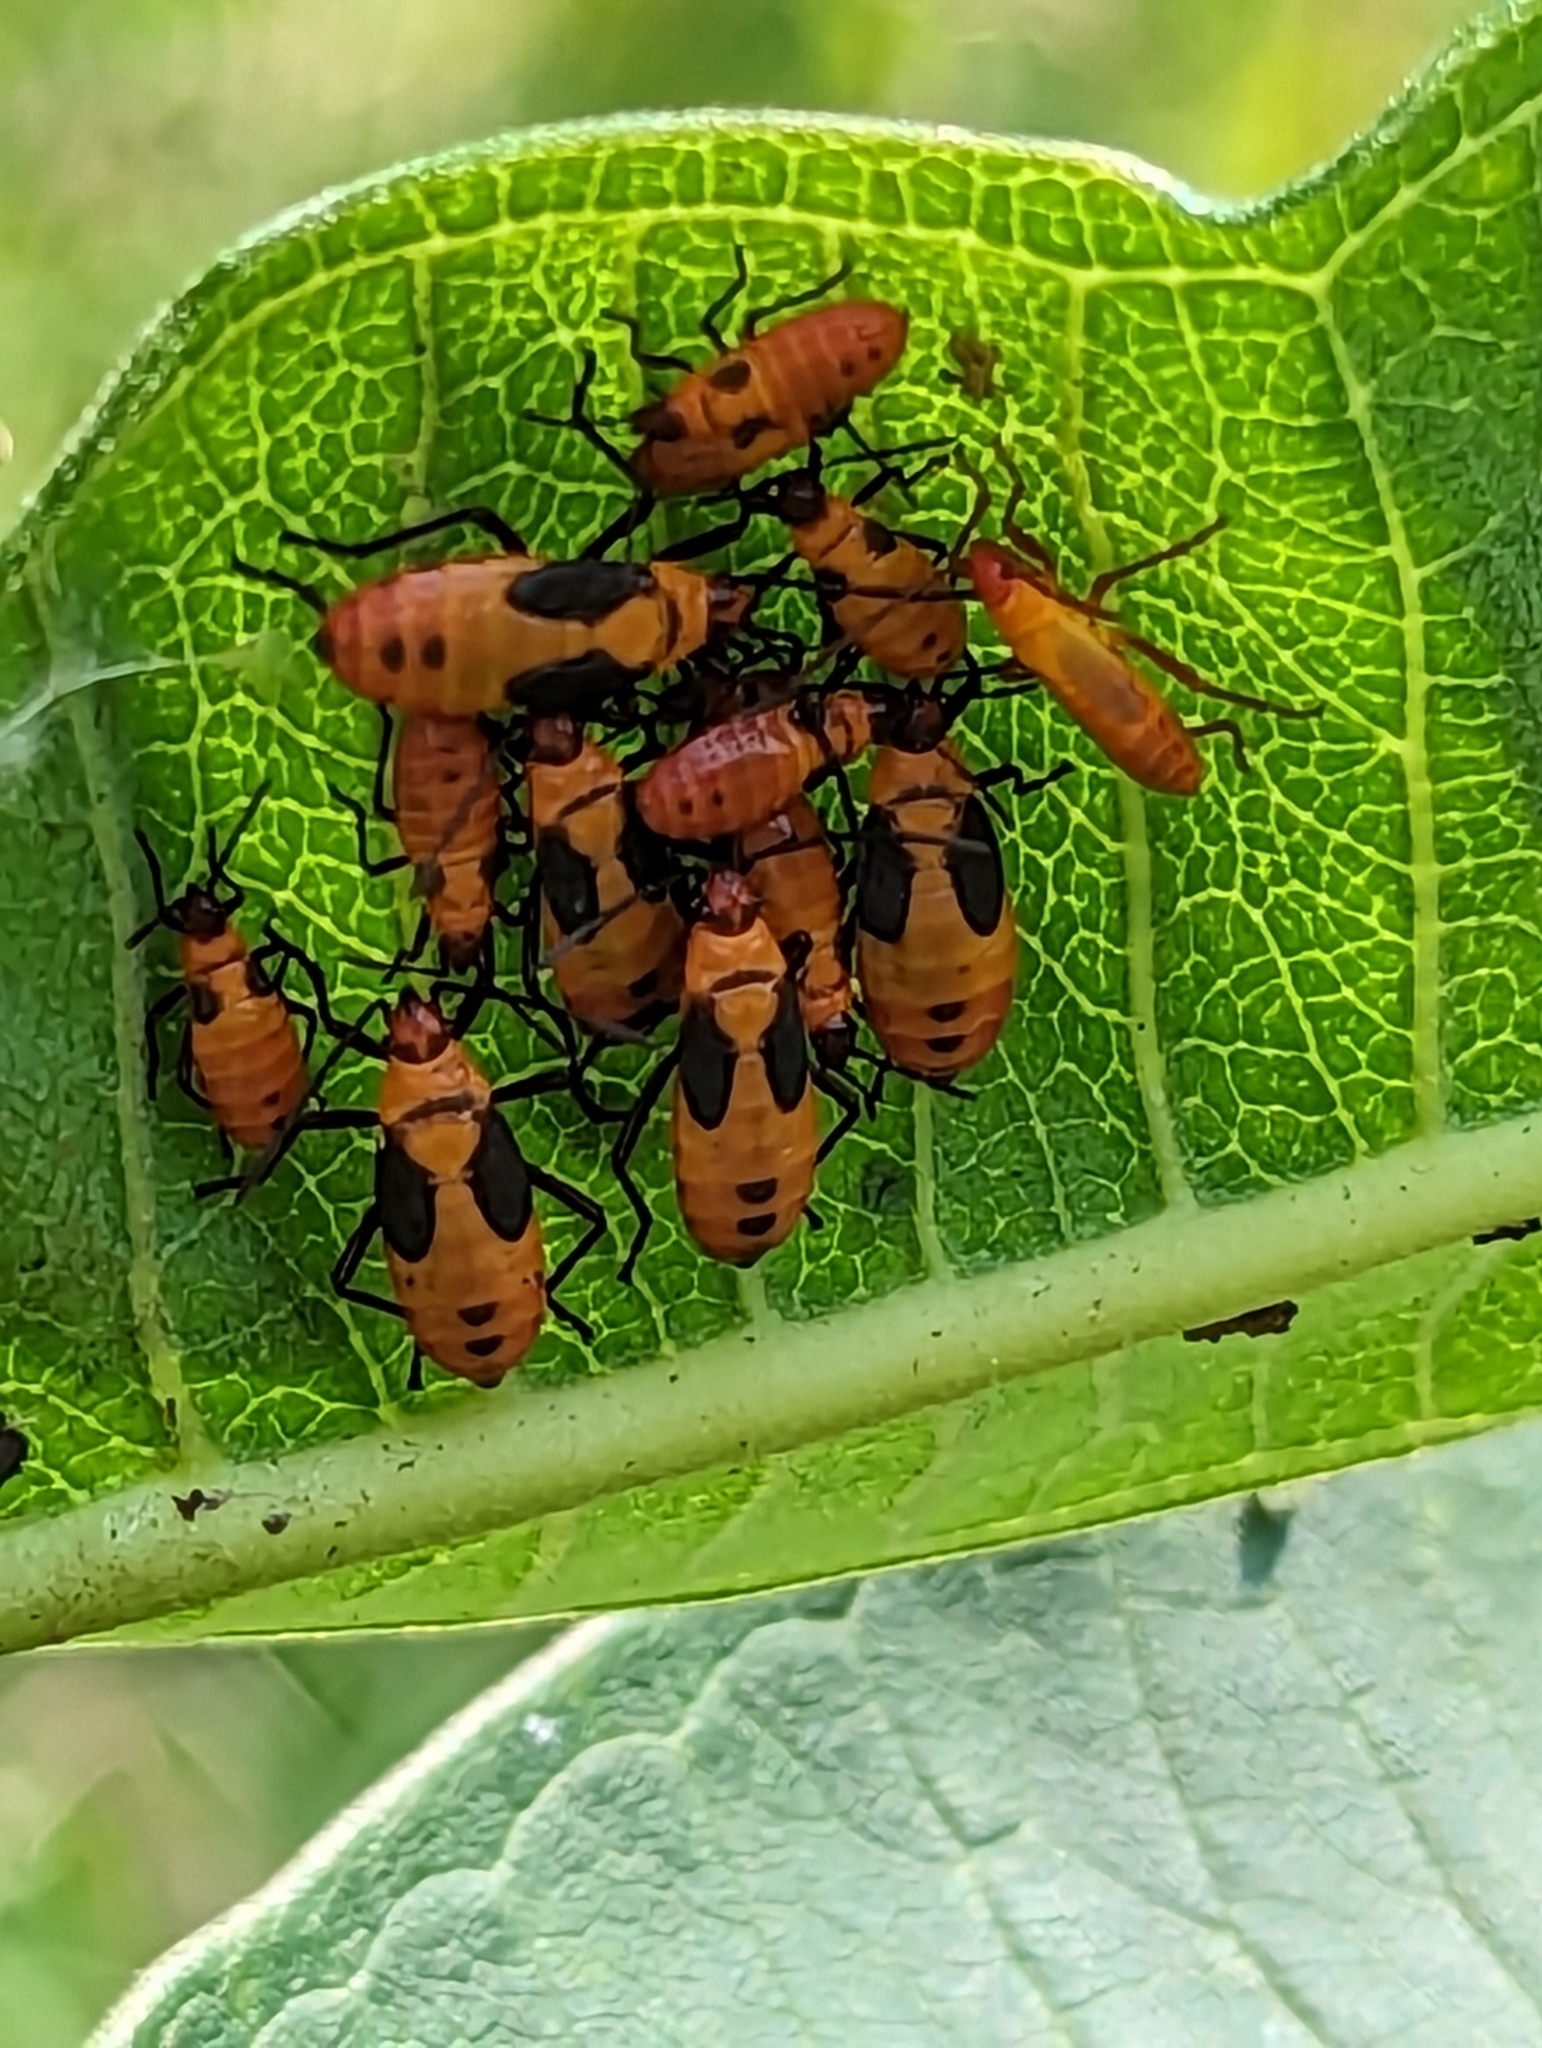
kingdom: Animalia
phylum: Arthropoda
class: Insecta
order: Hemiptera
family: Lygaeidae
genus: Oncopeltus
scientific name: Oncopeltus fasciatus
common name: Large milkweed bug
